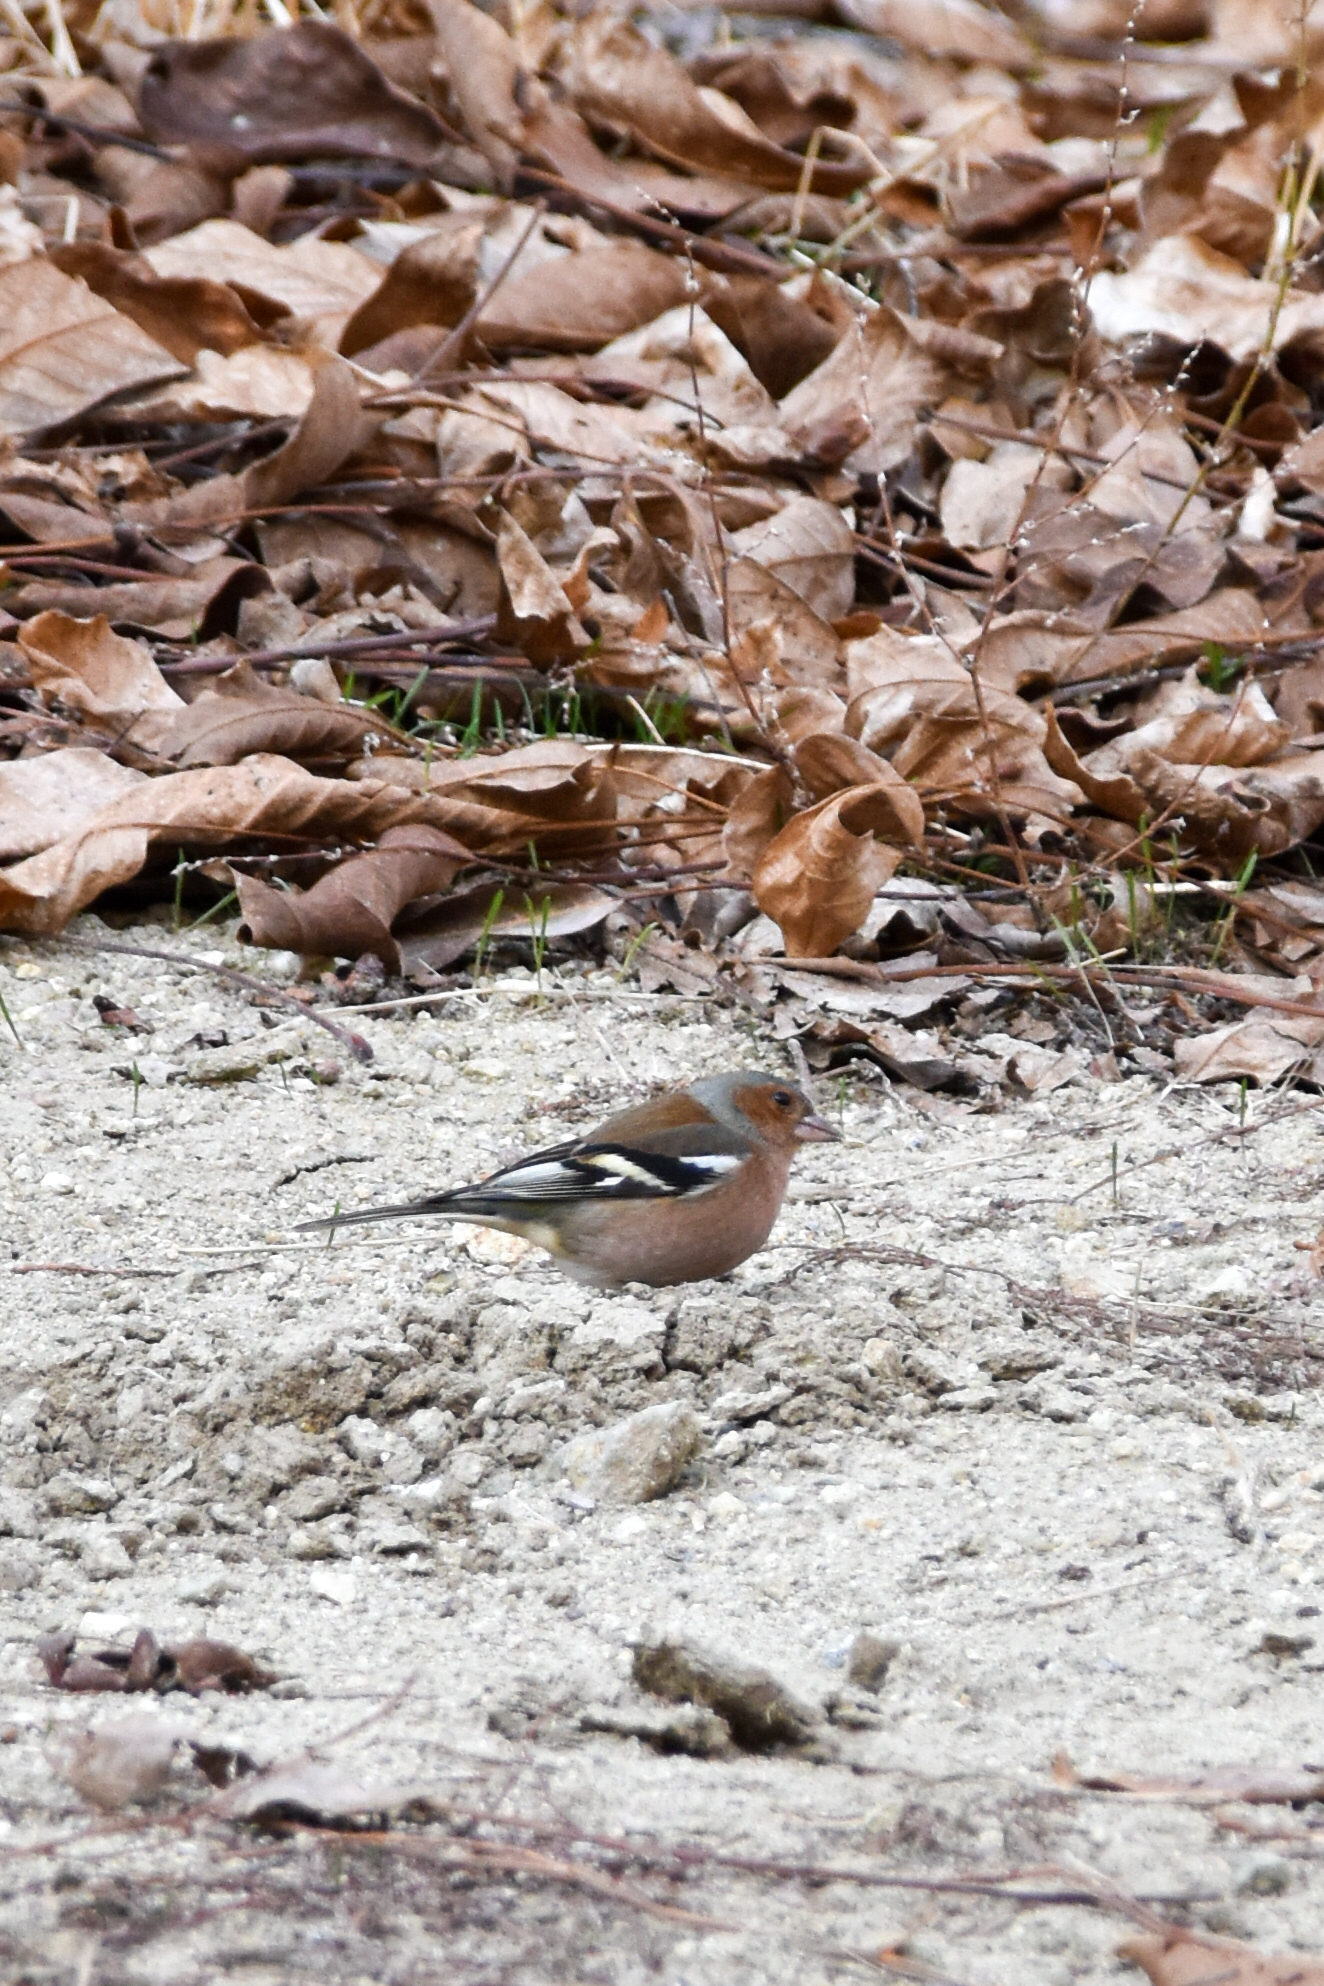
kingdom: Animalia
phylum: Chordata
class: Aves
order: Passeriformes
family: Fringillidae
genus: Fringilla
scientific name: Fringilla coelebs
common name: Common chaffinch
